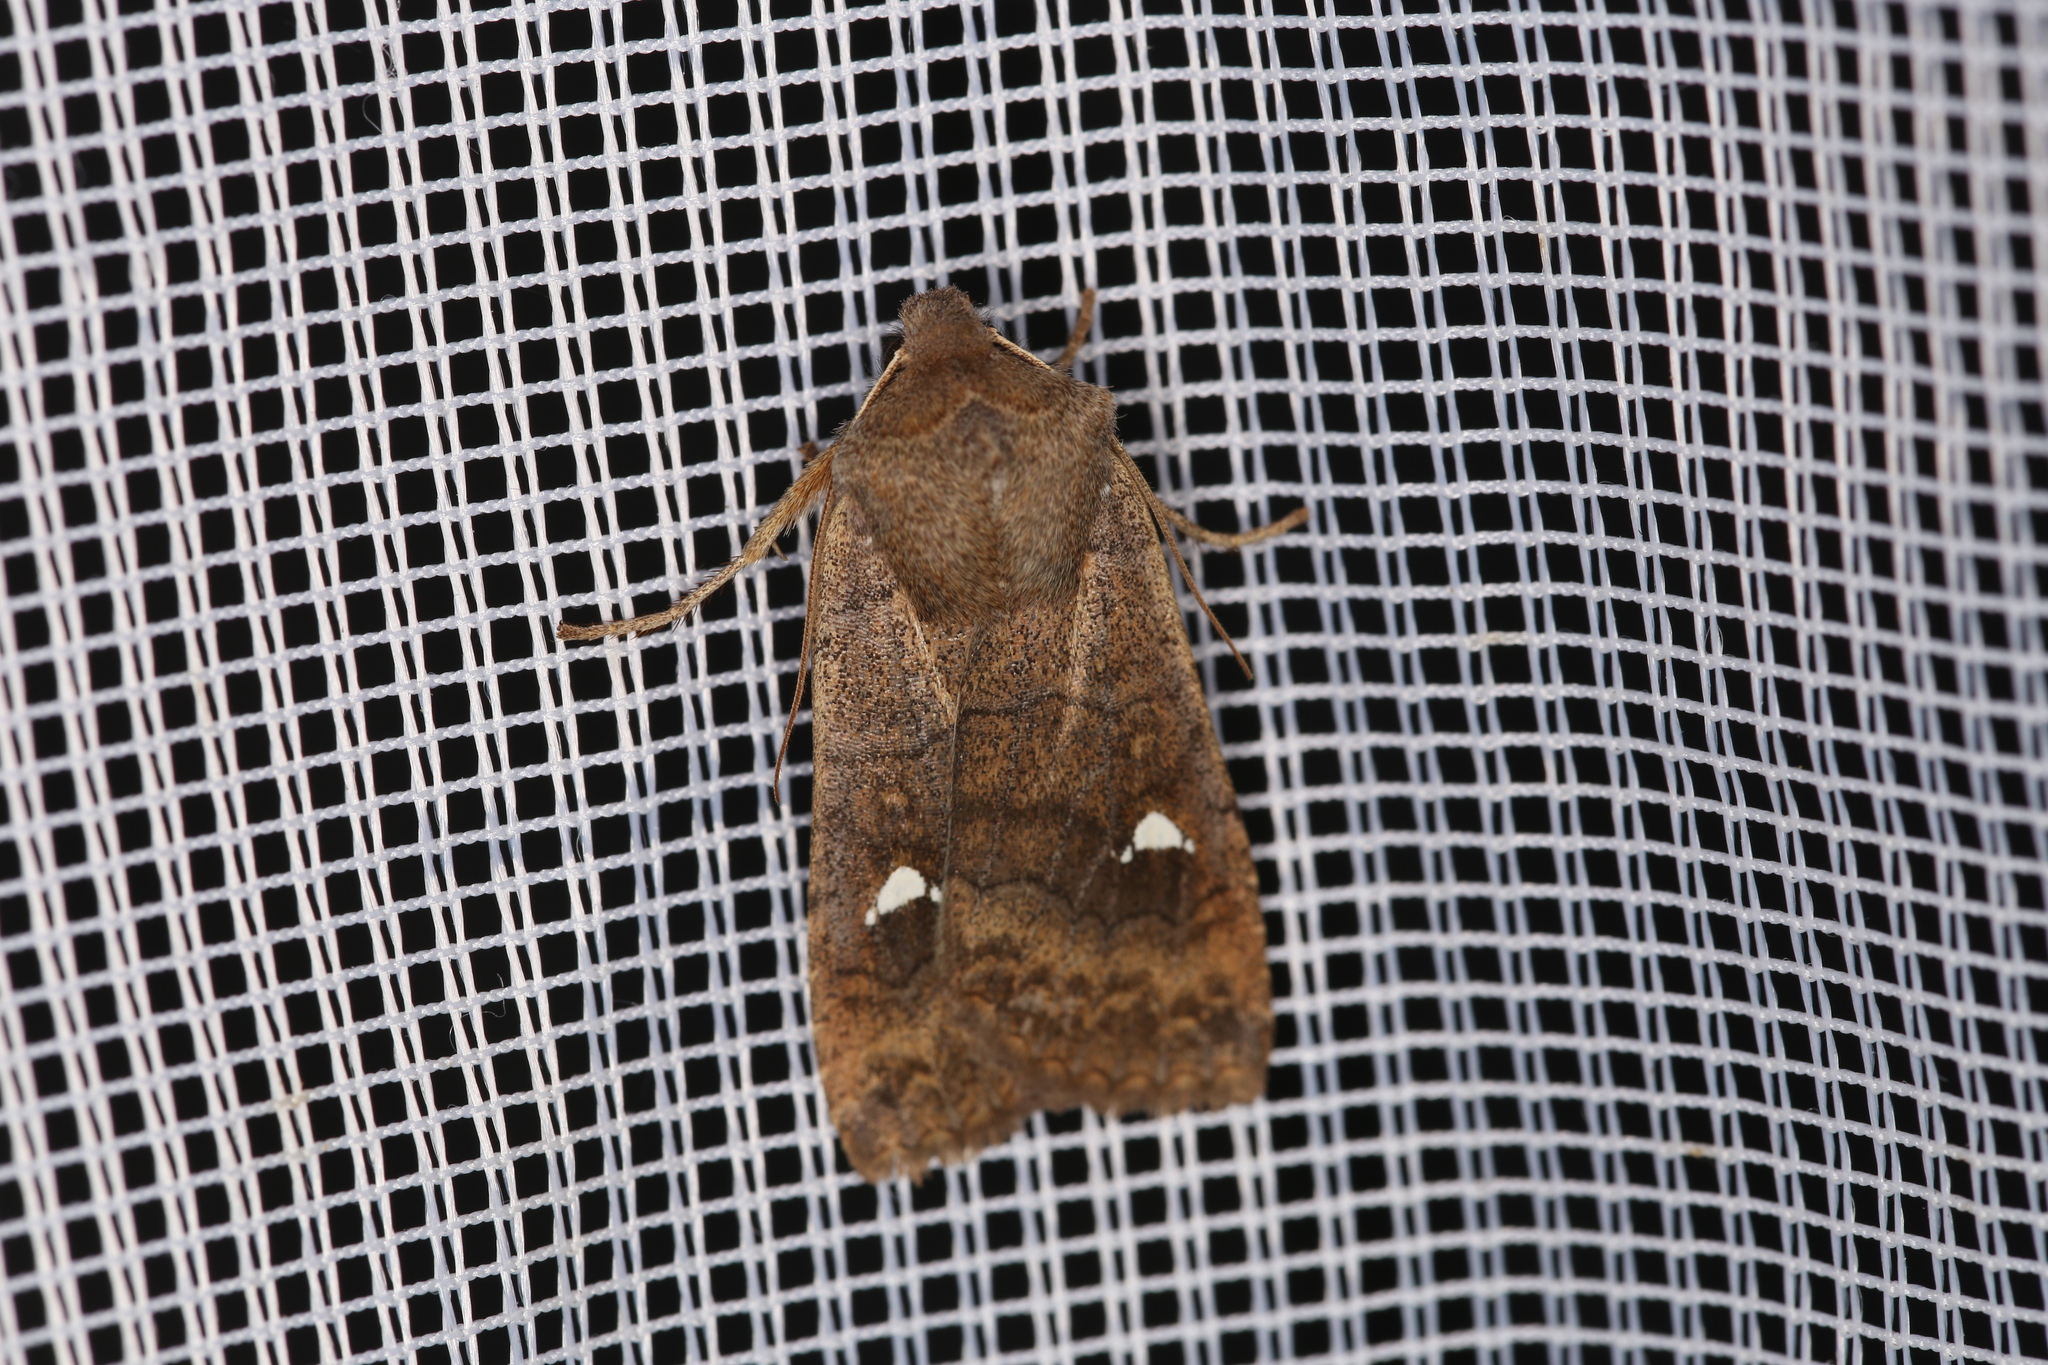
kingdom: Animalia
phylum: Arthropoda
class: Insecta
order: Lepidoptera
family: Noctuidae
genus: Eupsilia
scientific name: Eupsilia transversa
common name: Satellite
